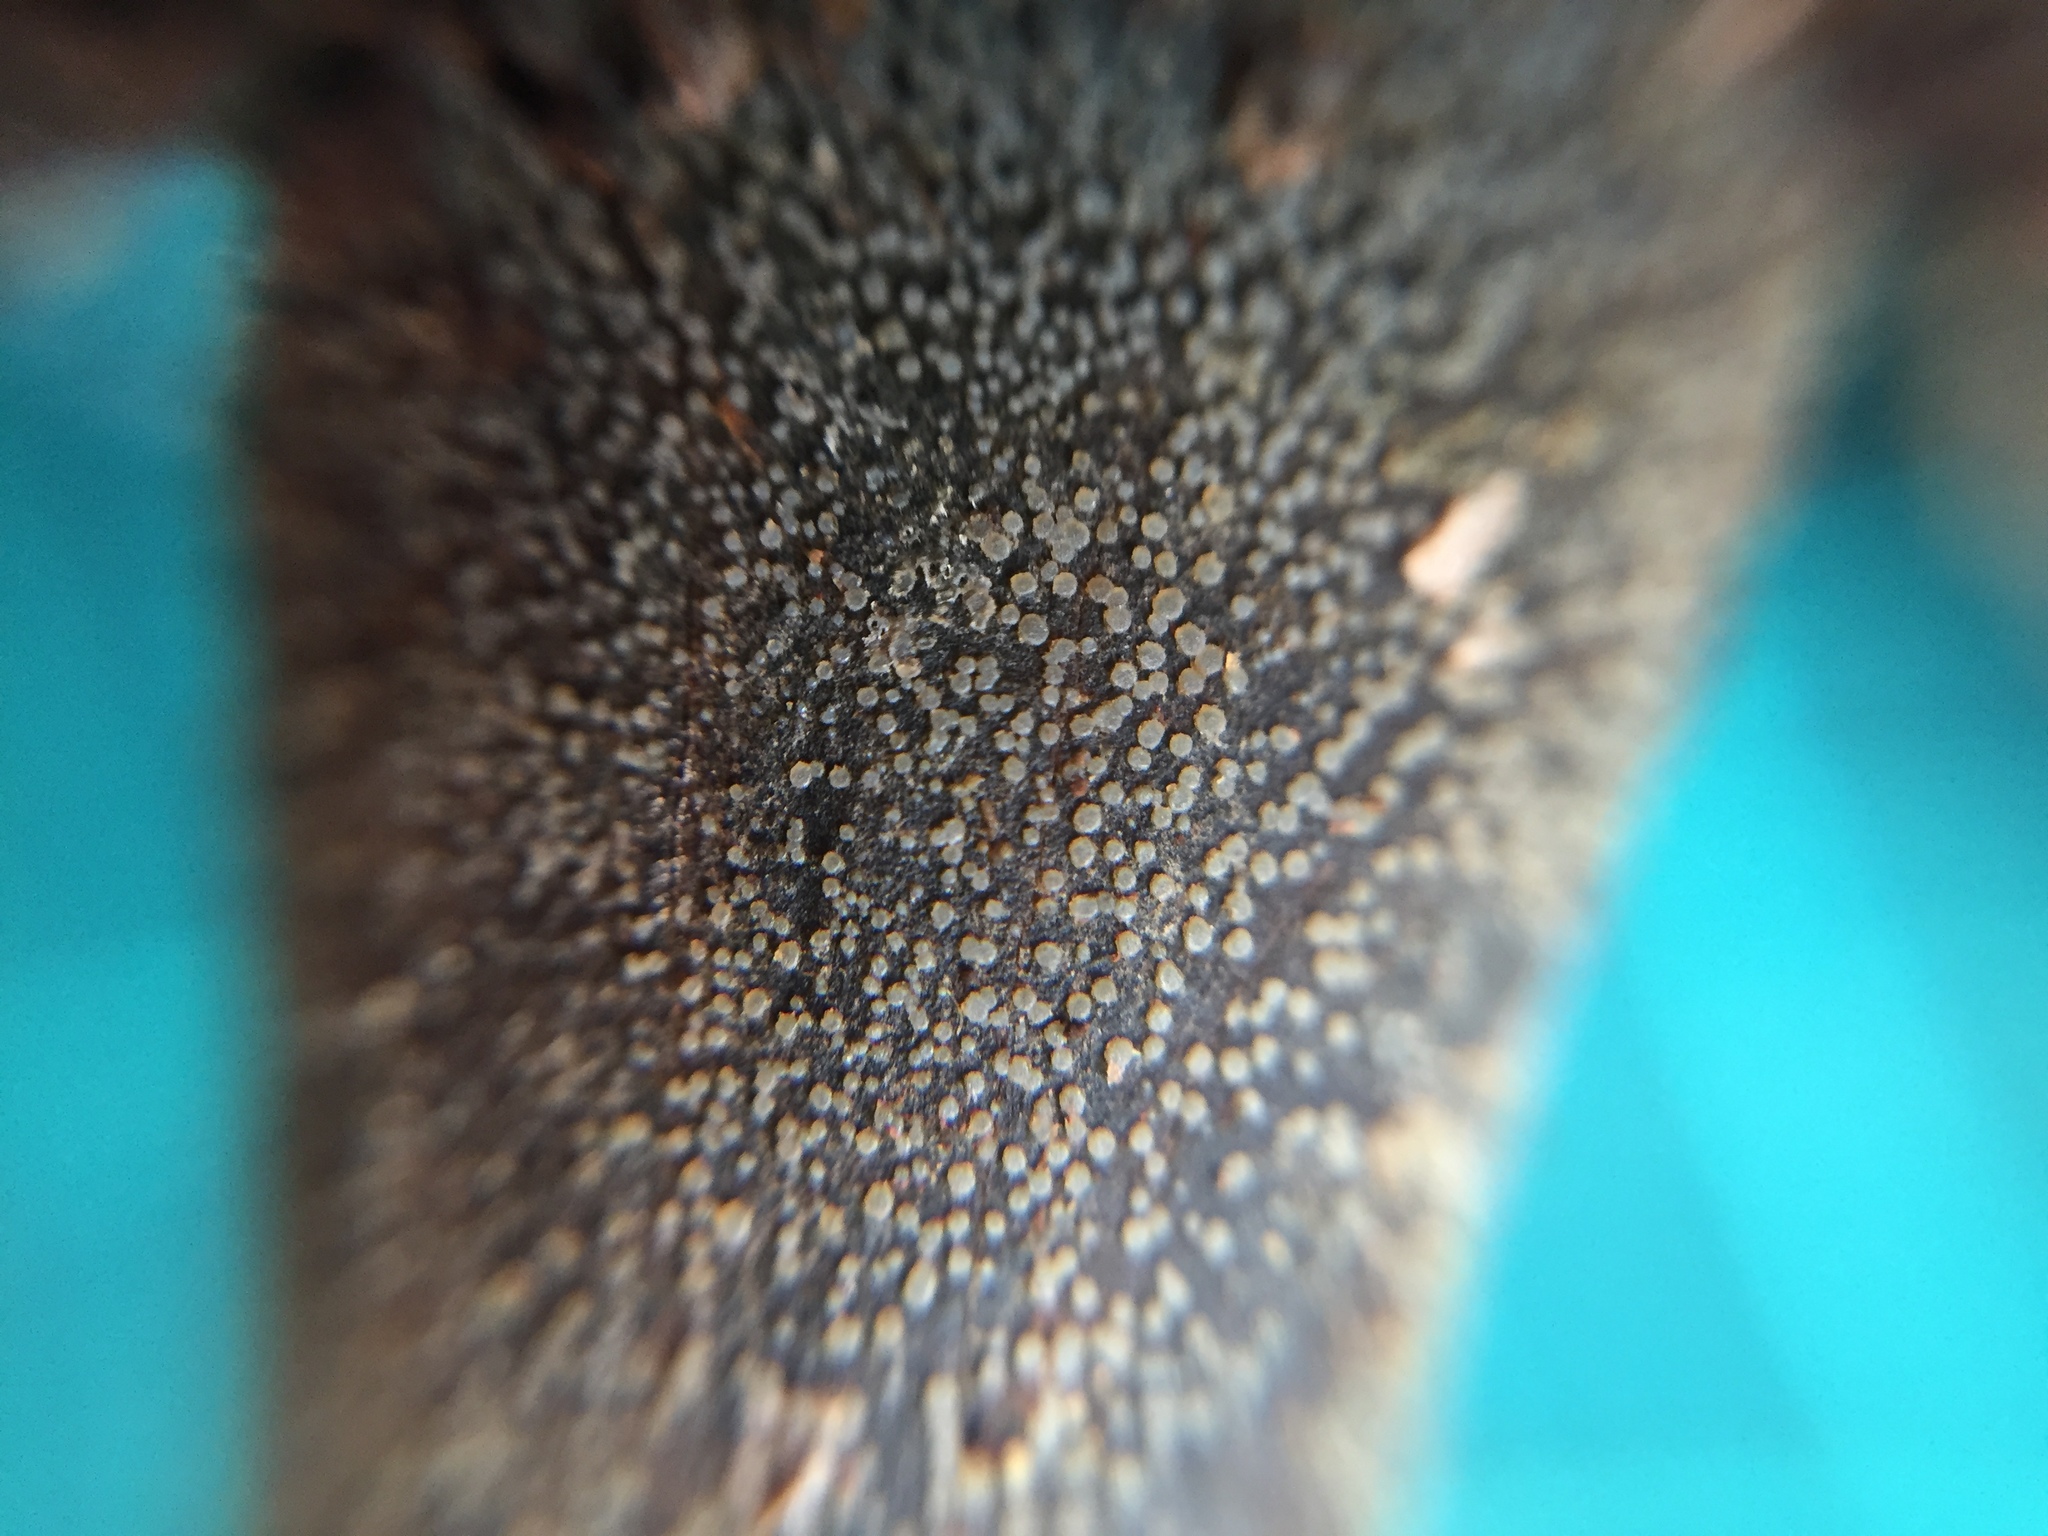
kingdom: Fungi
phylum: Ascomycota
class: Leotiomycetes
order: Phacidiales
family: Helicogoniaceae
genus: Gelatinipulvinella
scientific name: Gelatinipulvinella astraeicola
